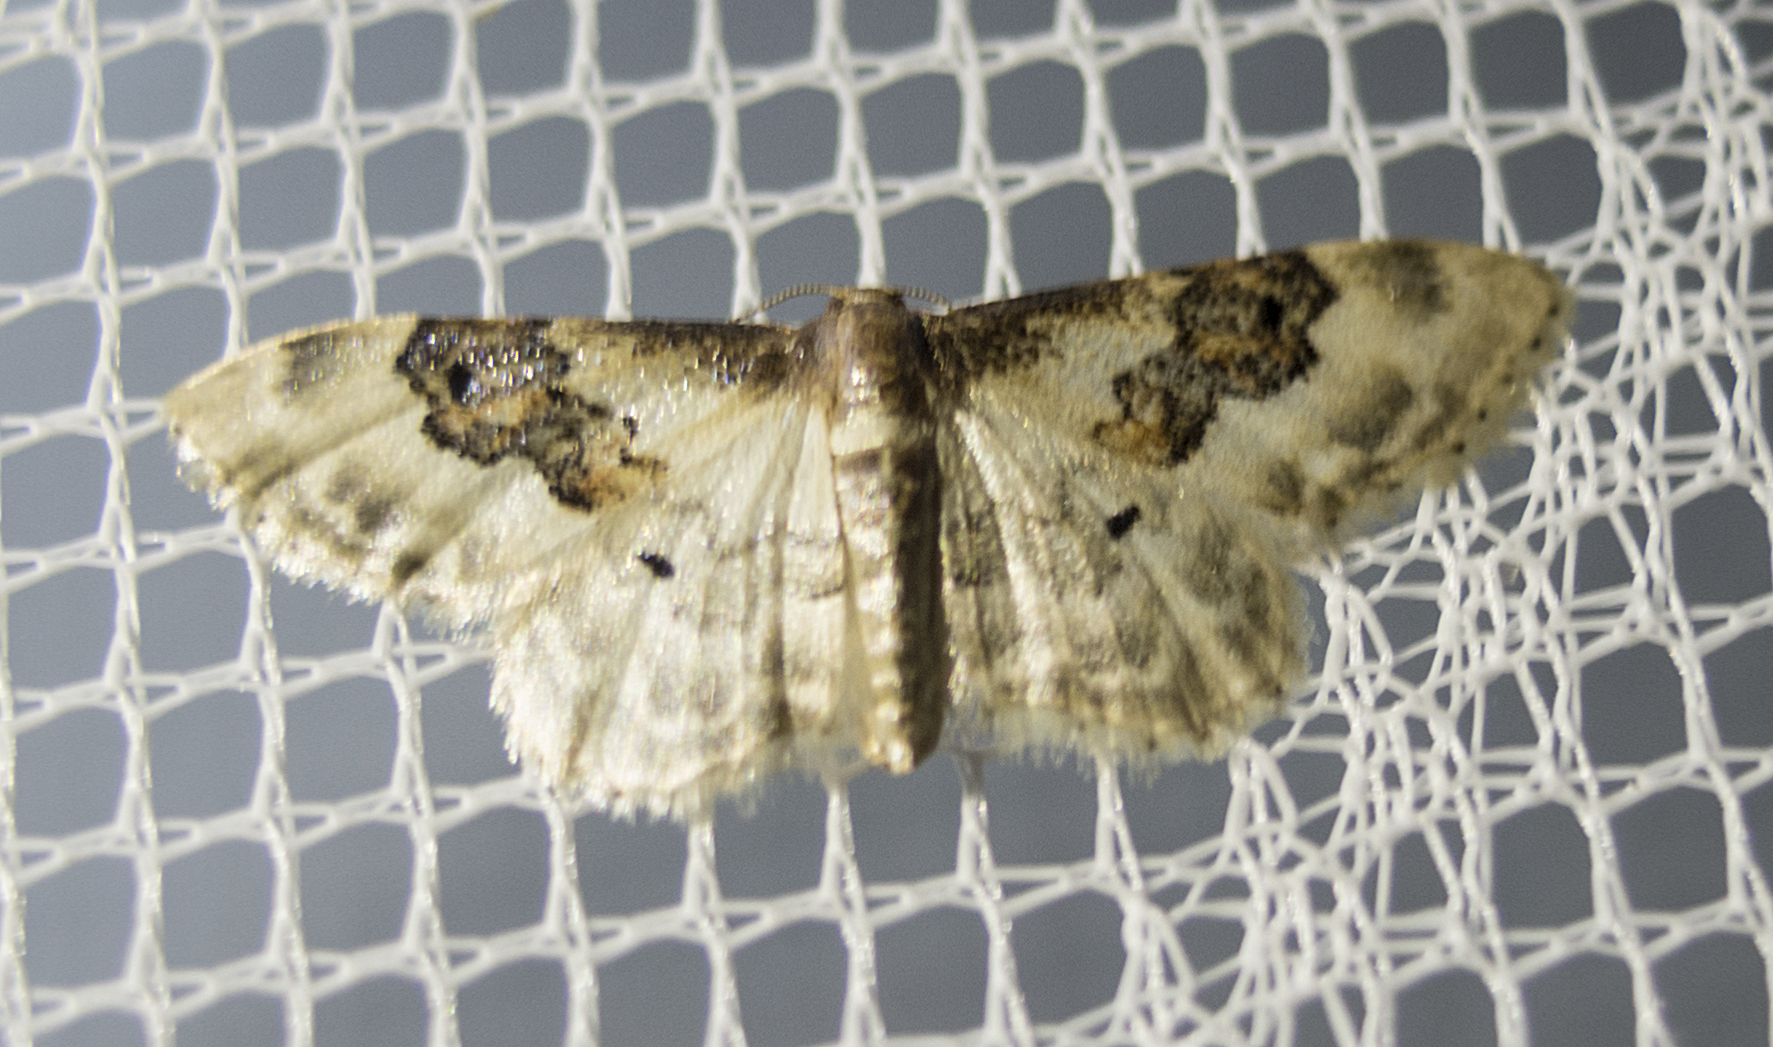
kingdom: Animalia
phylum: Arthropoda
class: Insecta
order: Lepidoptera
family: Geometridae
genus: Idaea
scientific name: Idaea rusticata
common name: Least carpet
